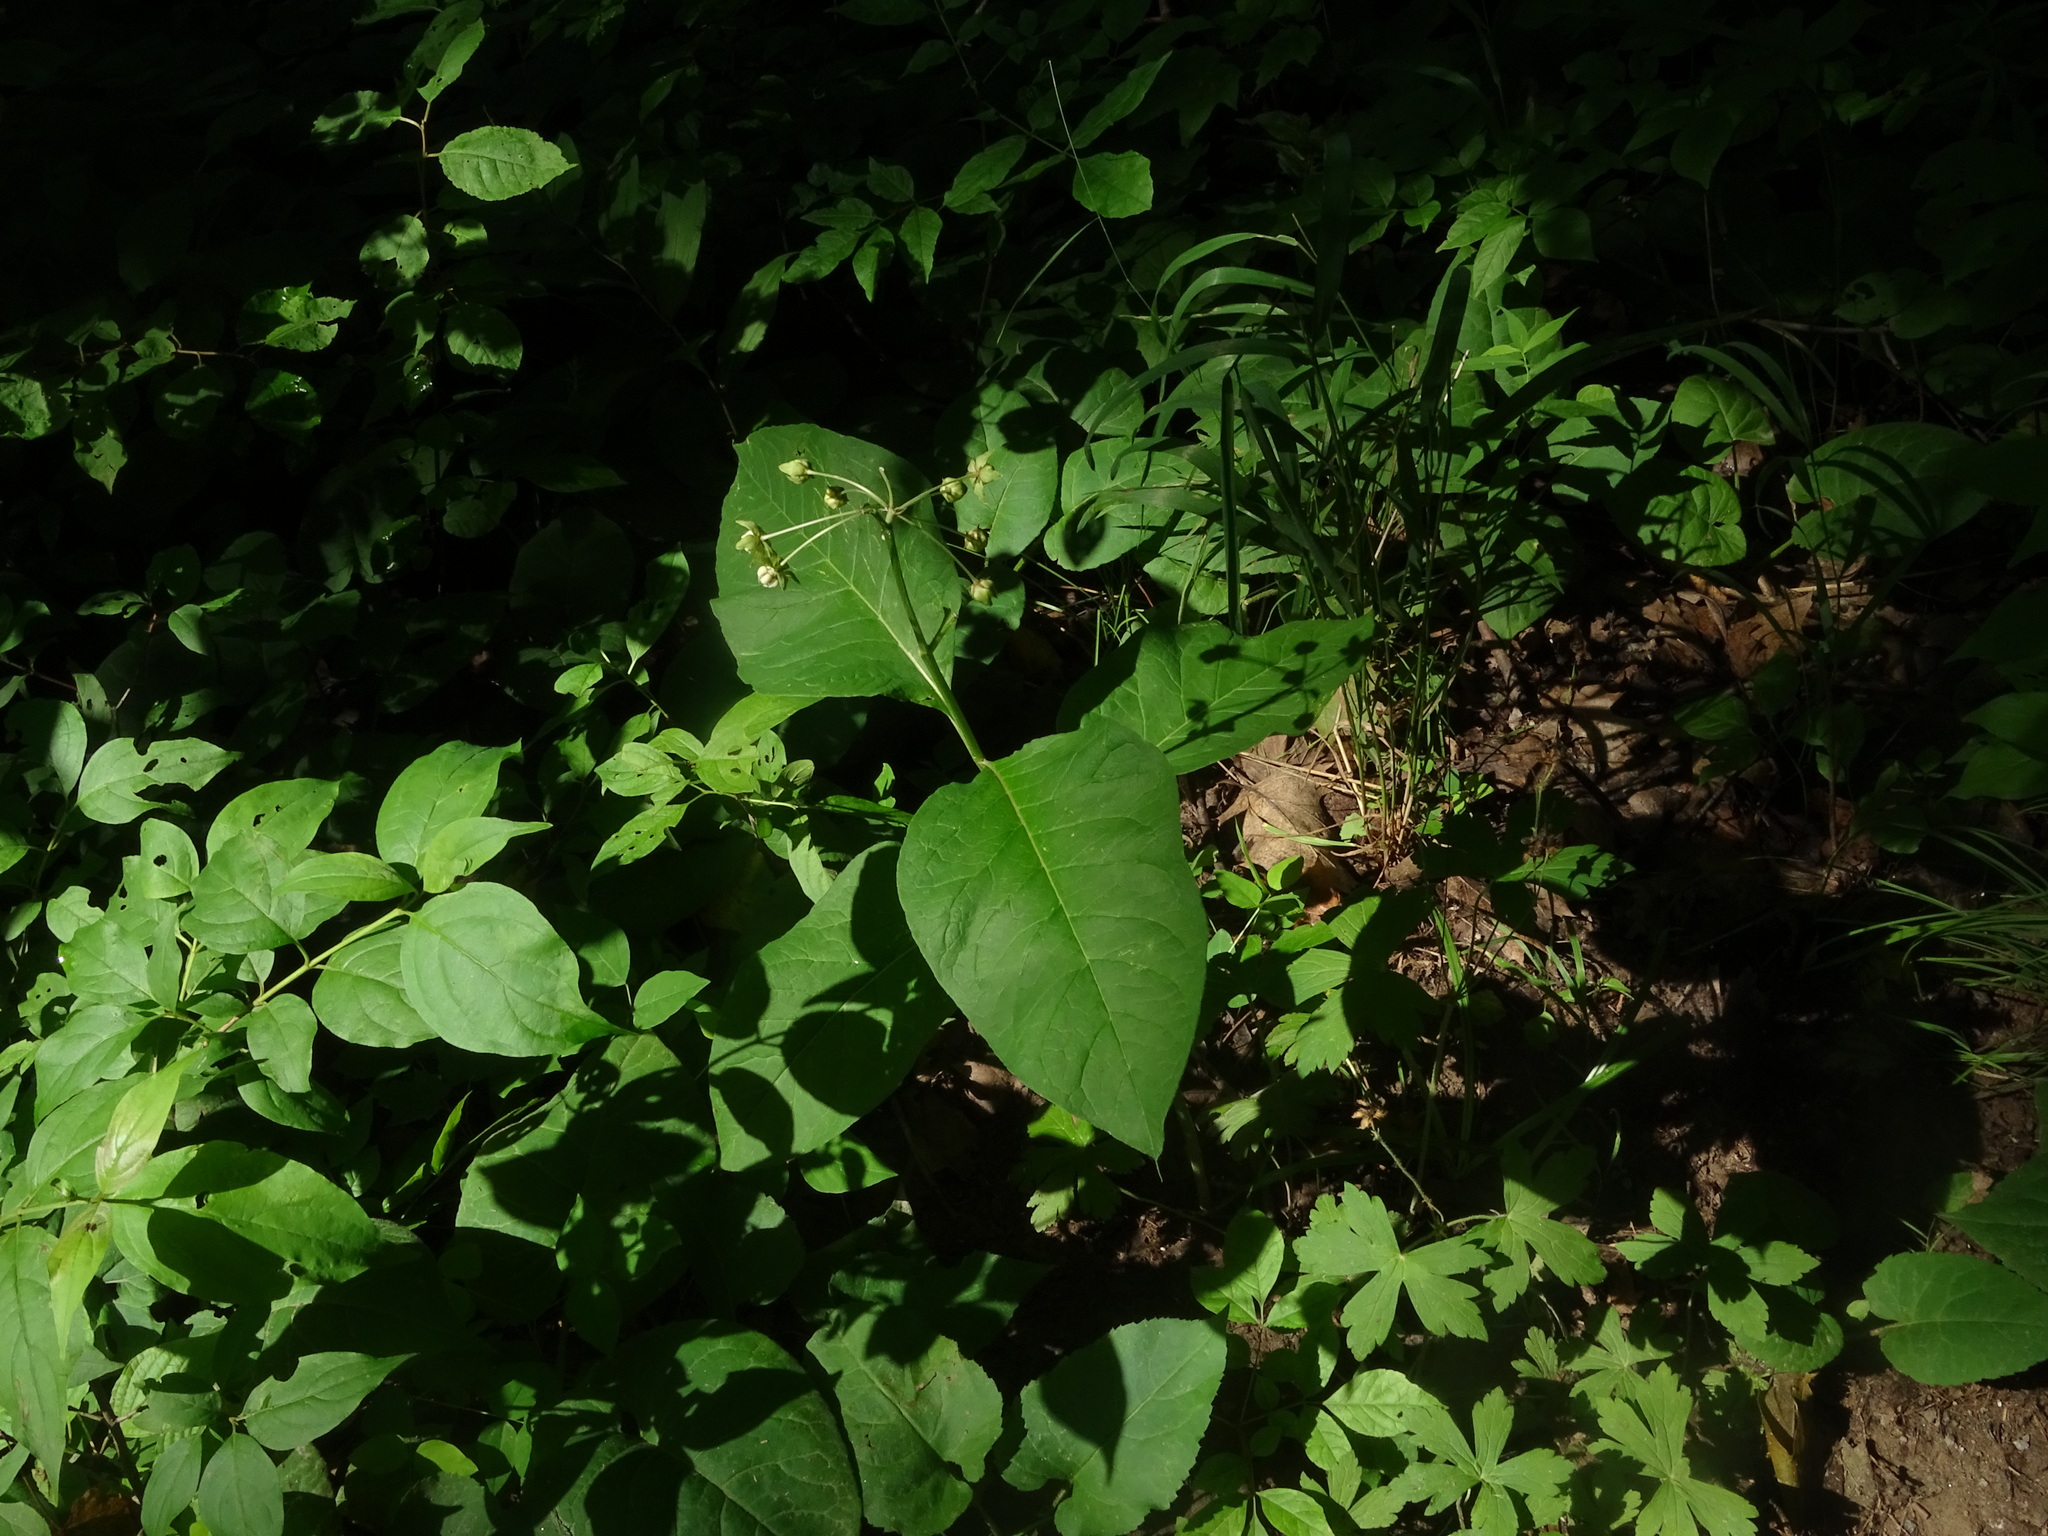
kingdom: Plantae
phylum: Tracheophyta
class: Magnoliopsida
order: Gentianales
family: Apocynaceae
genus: Asclepias
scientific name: Asclepias exaltata
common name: Poke milkweed
